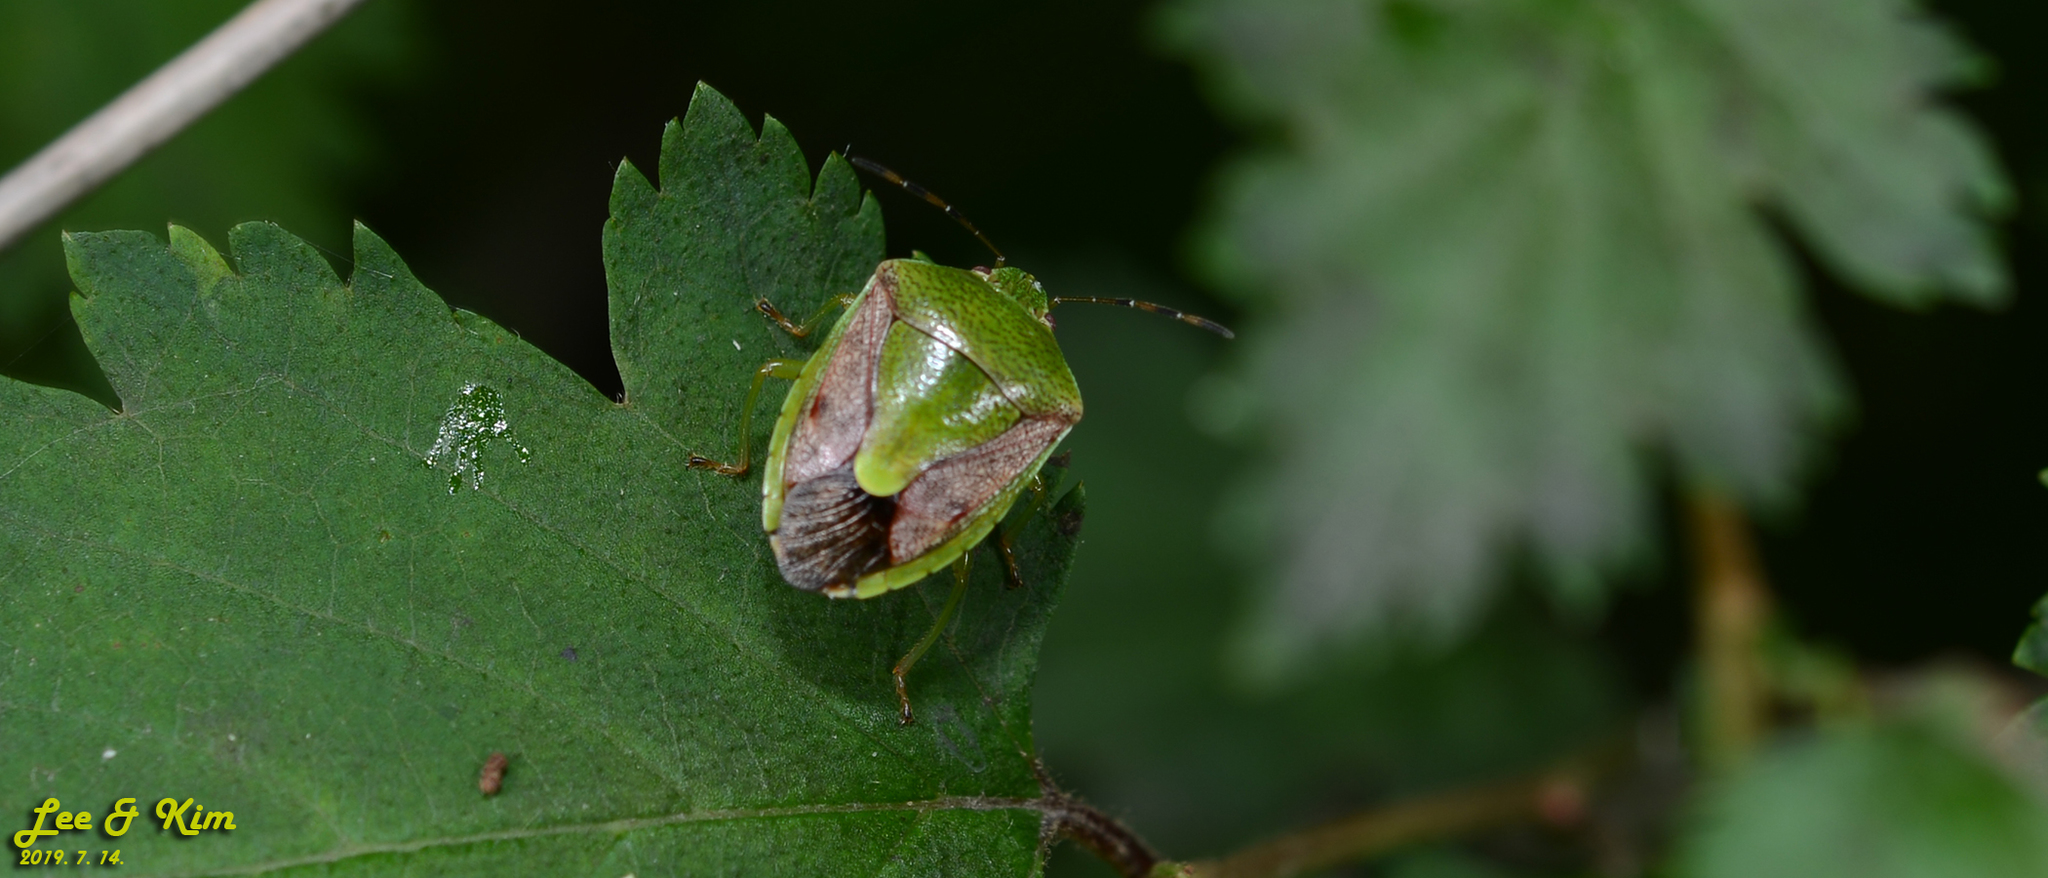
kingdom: Animalia
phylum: Arthropoda
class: Insecta
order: Hemiptera
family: Pentatomidae
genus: Plautia
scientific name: Plautia stali
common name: Stink bug
